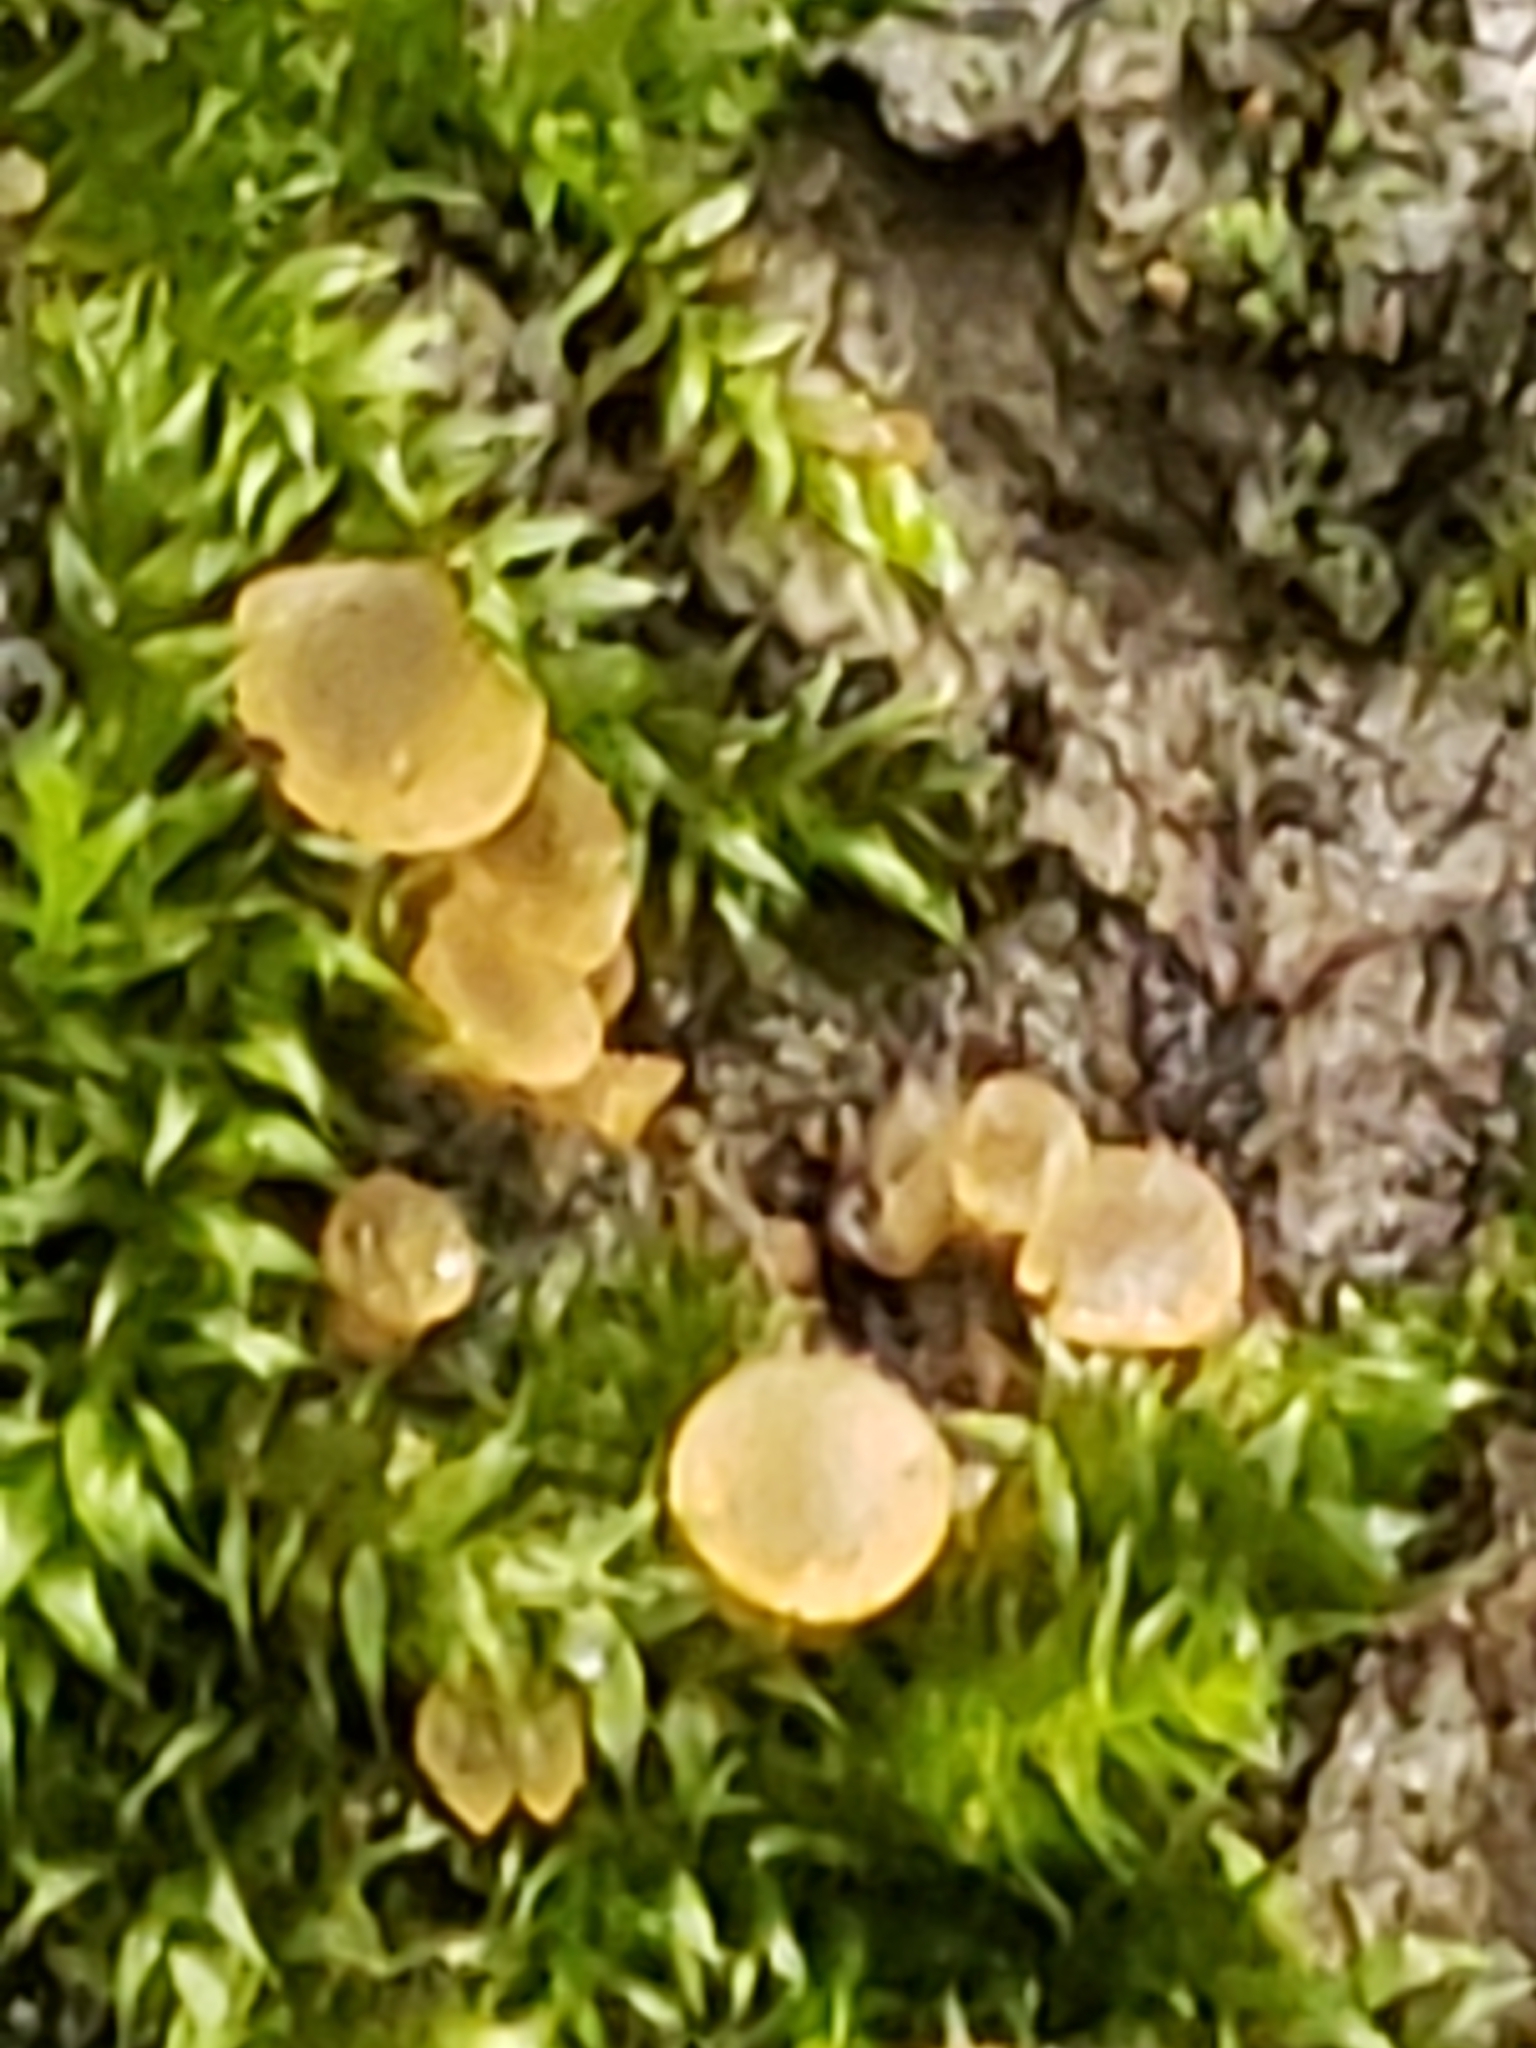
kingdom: Fungi
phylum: Ascomycota
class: Orbiliomycetes
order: Orbiliales
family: Orbiliaceae
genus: Orbilia
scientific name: Orbilia
